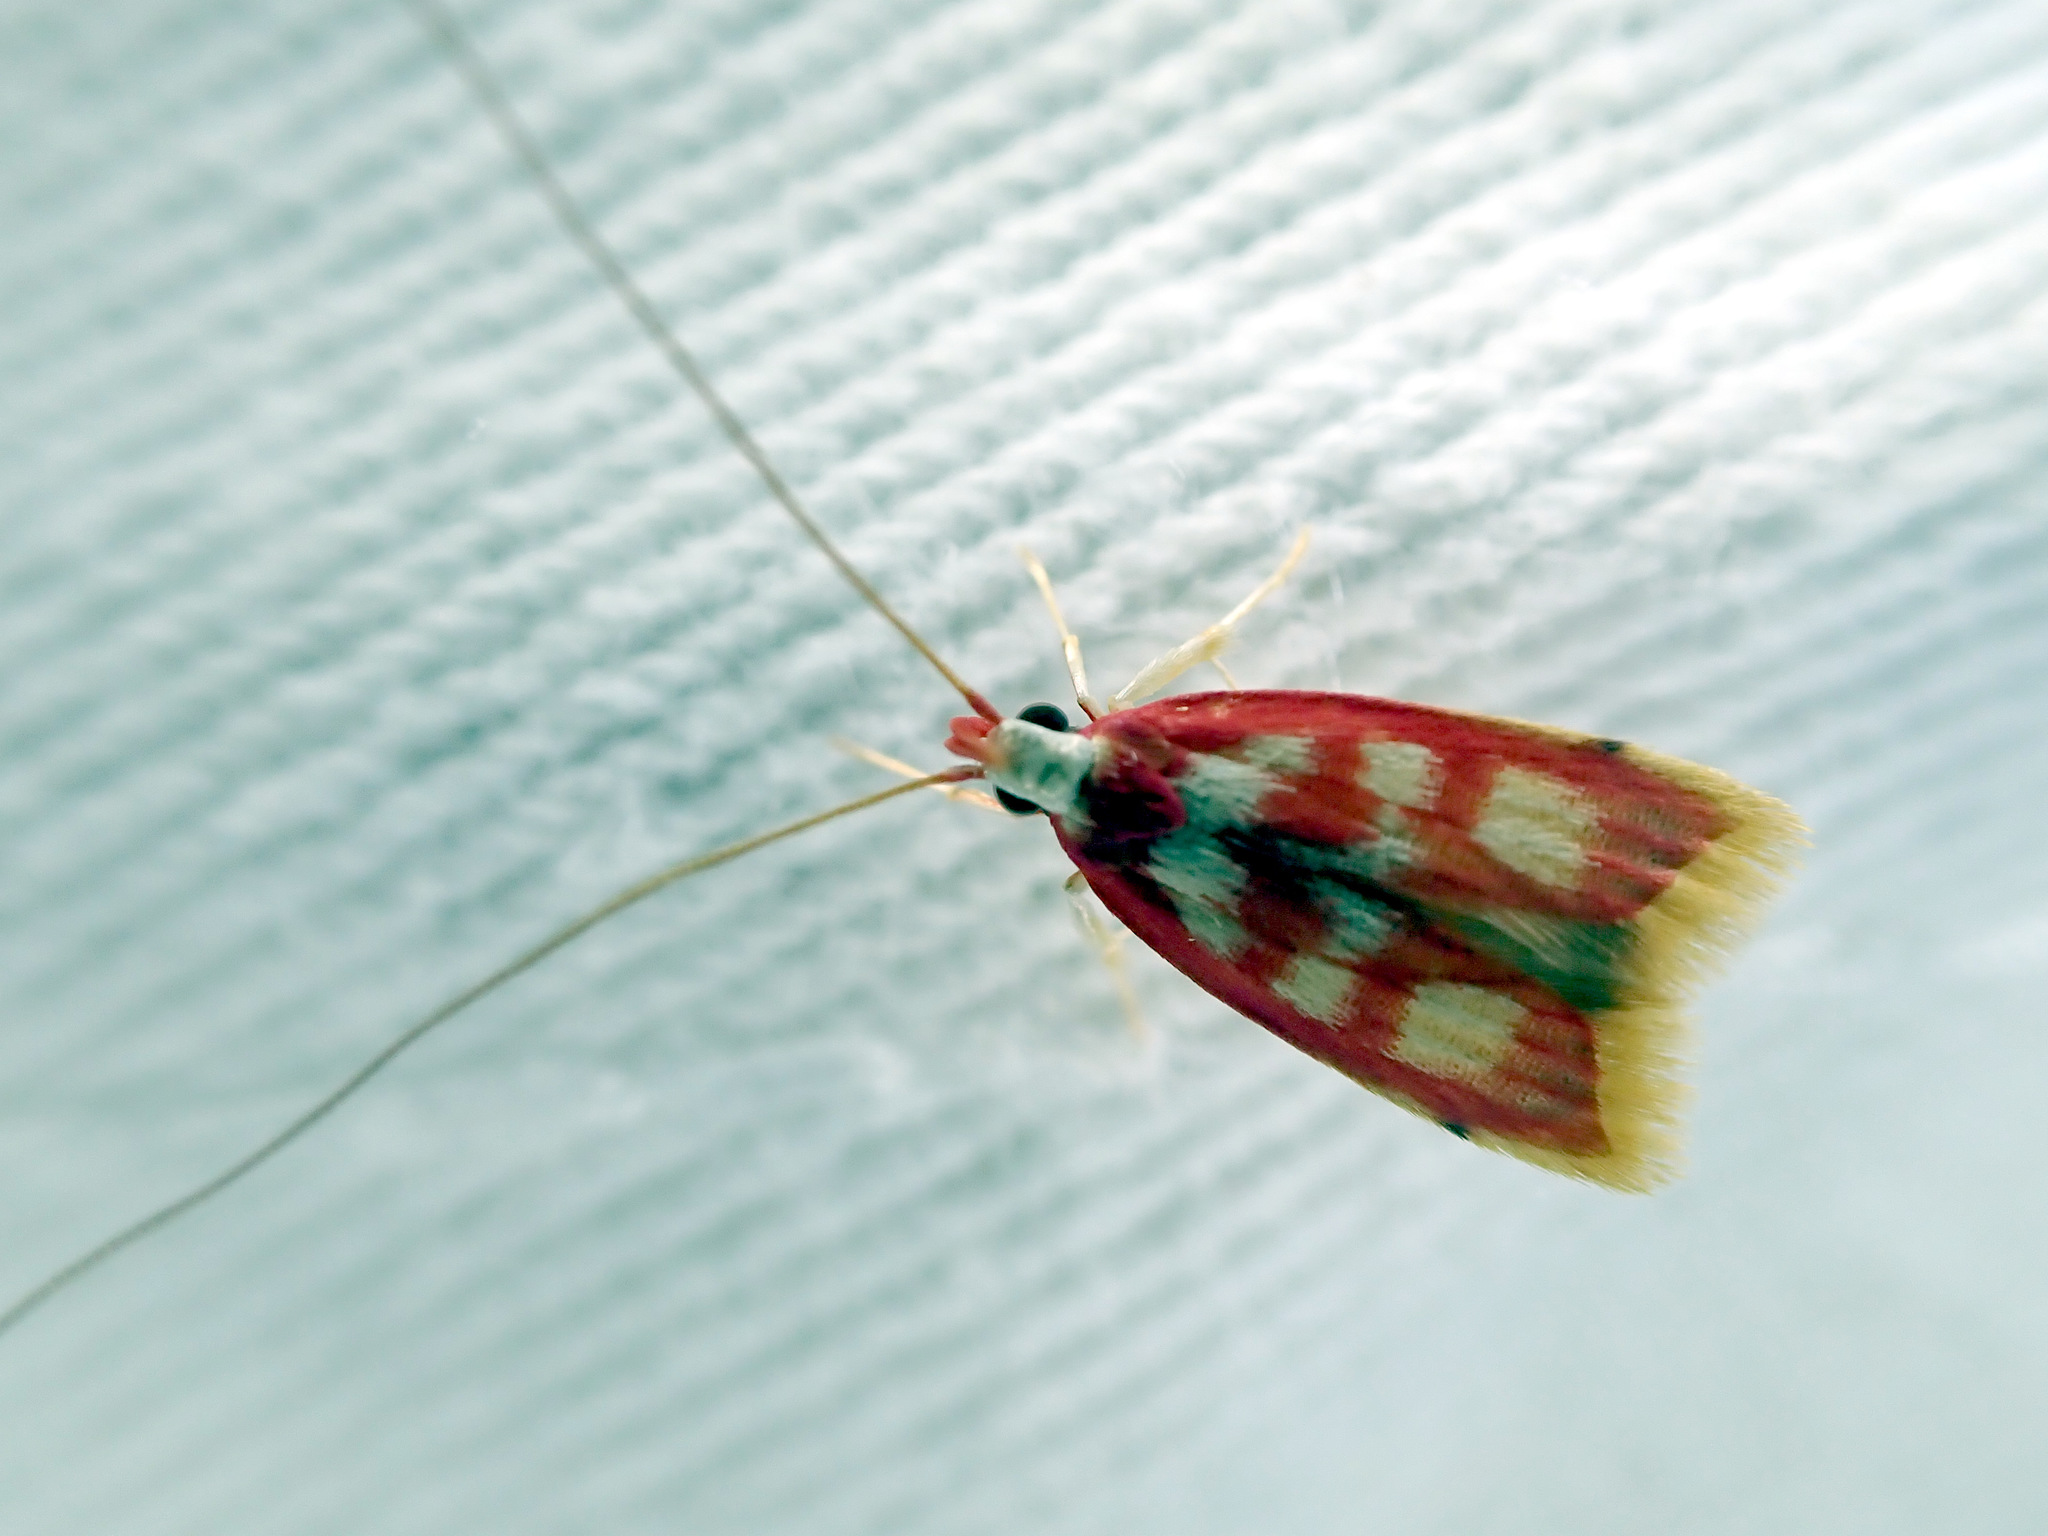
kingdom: Animalia
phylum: Arthropoda
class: Insecta
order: Lepidoptera
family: Lecithoceridae
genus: Crocanthes
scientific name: Crocanthes sidonia
